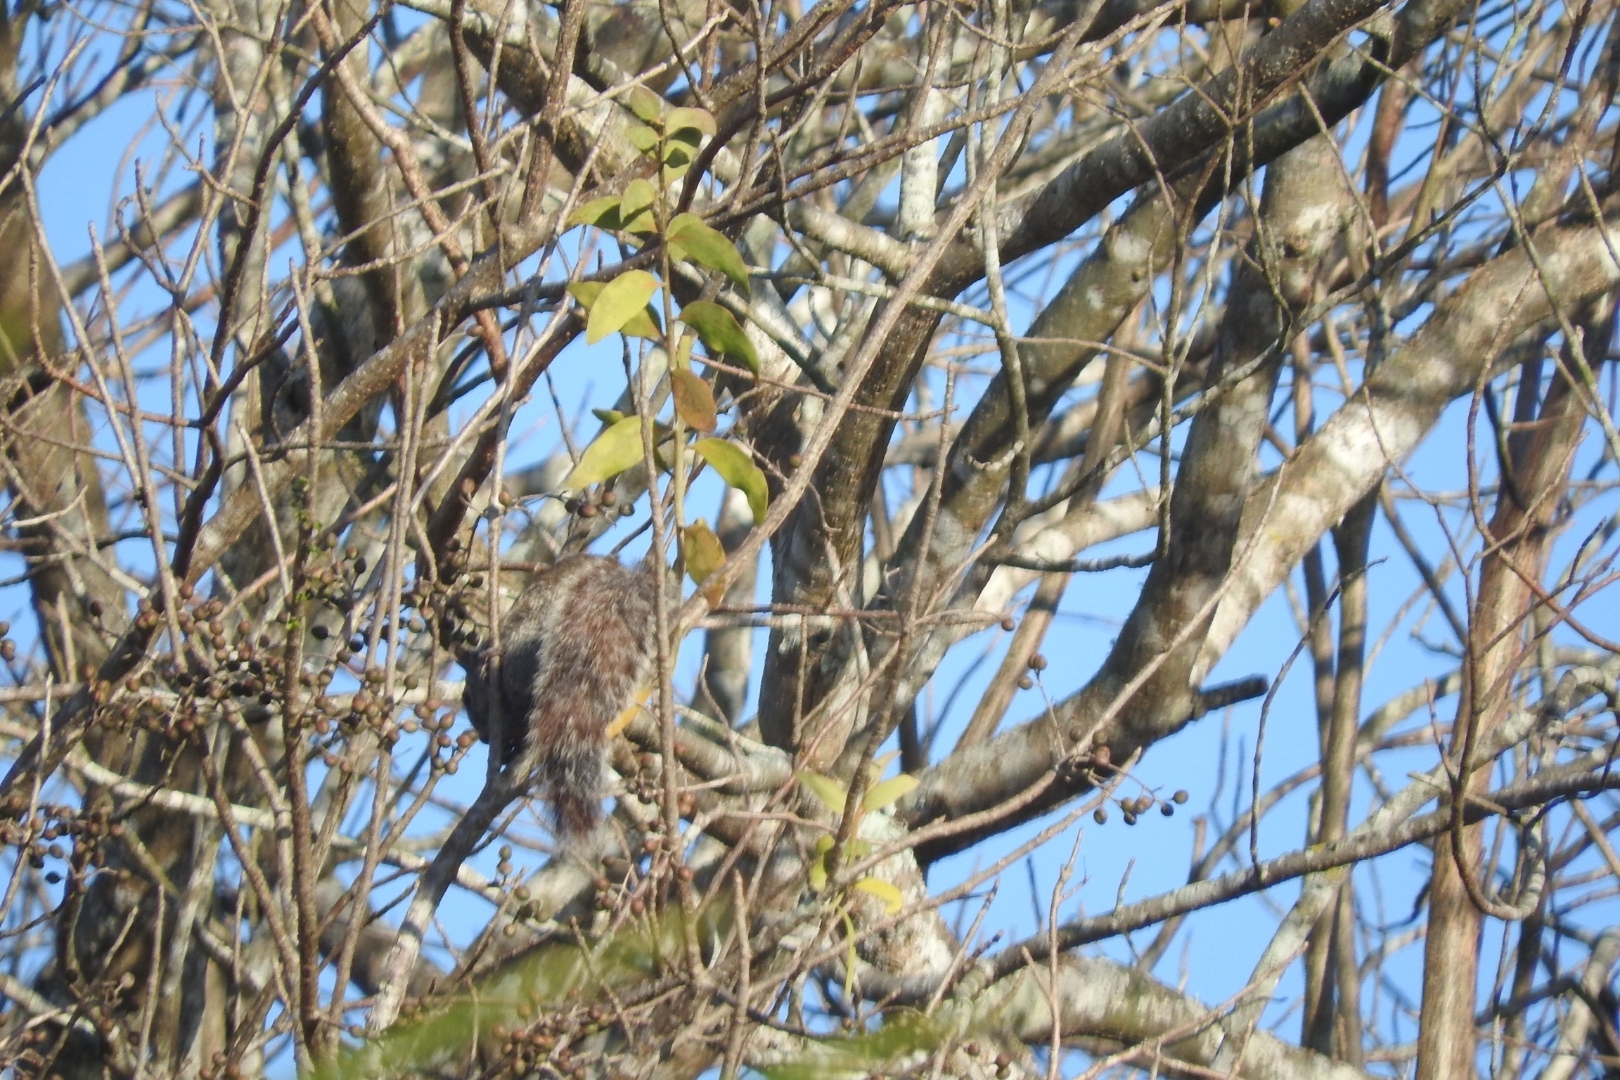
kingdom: Animalia
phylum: Chordata
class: Mammalia
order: Rodentia
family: Sciuridae
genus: Sciurus
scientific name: Sciurus yucatanensis
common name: Yucatan squirrel
